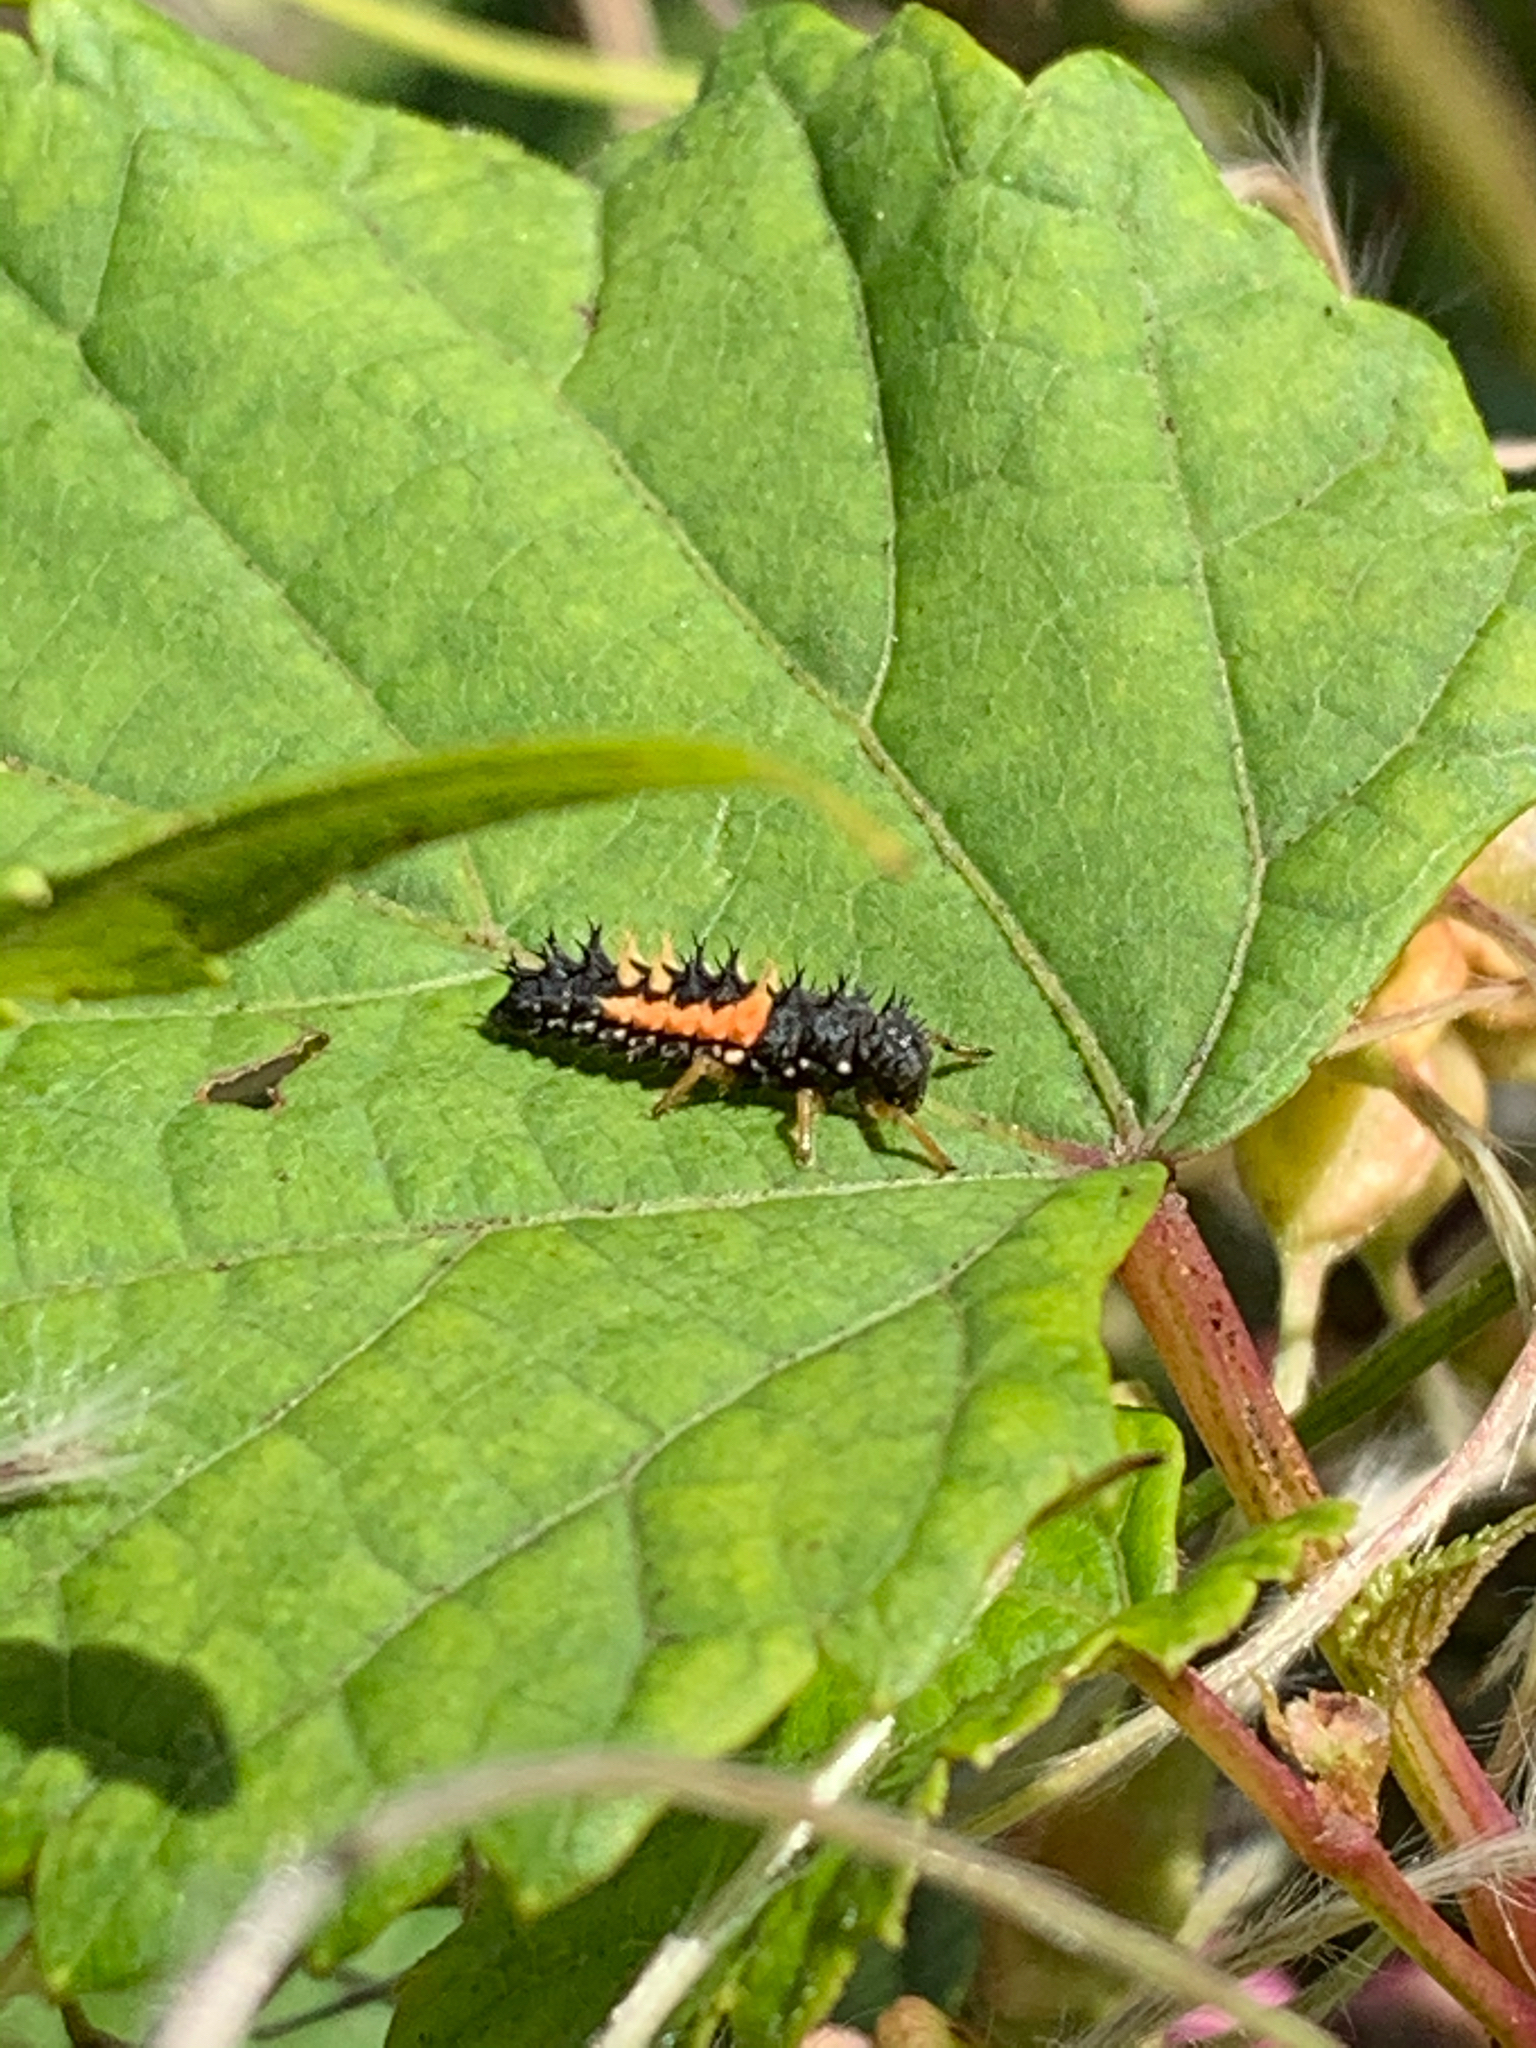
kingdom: Animalia
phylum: Arthropoda
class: Insecta
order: Coleoptera
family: Coccinellidae
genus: Harmonia
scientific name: Harmonia axyridis
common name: Harlequin ladybird
